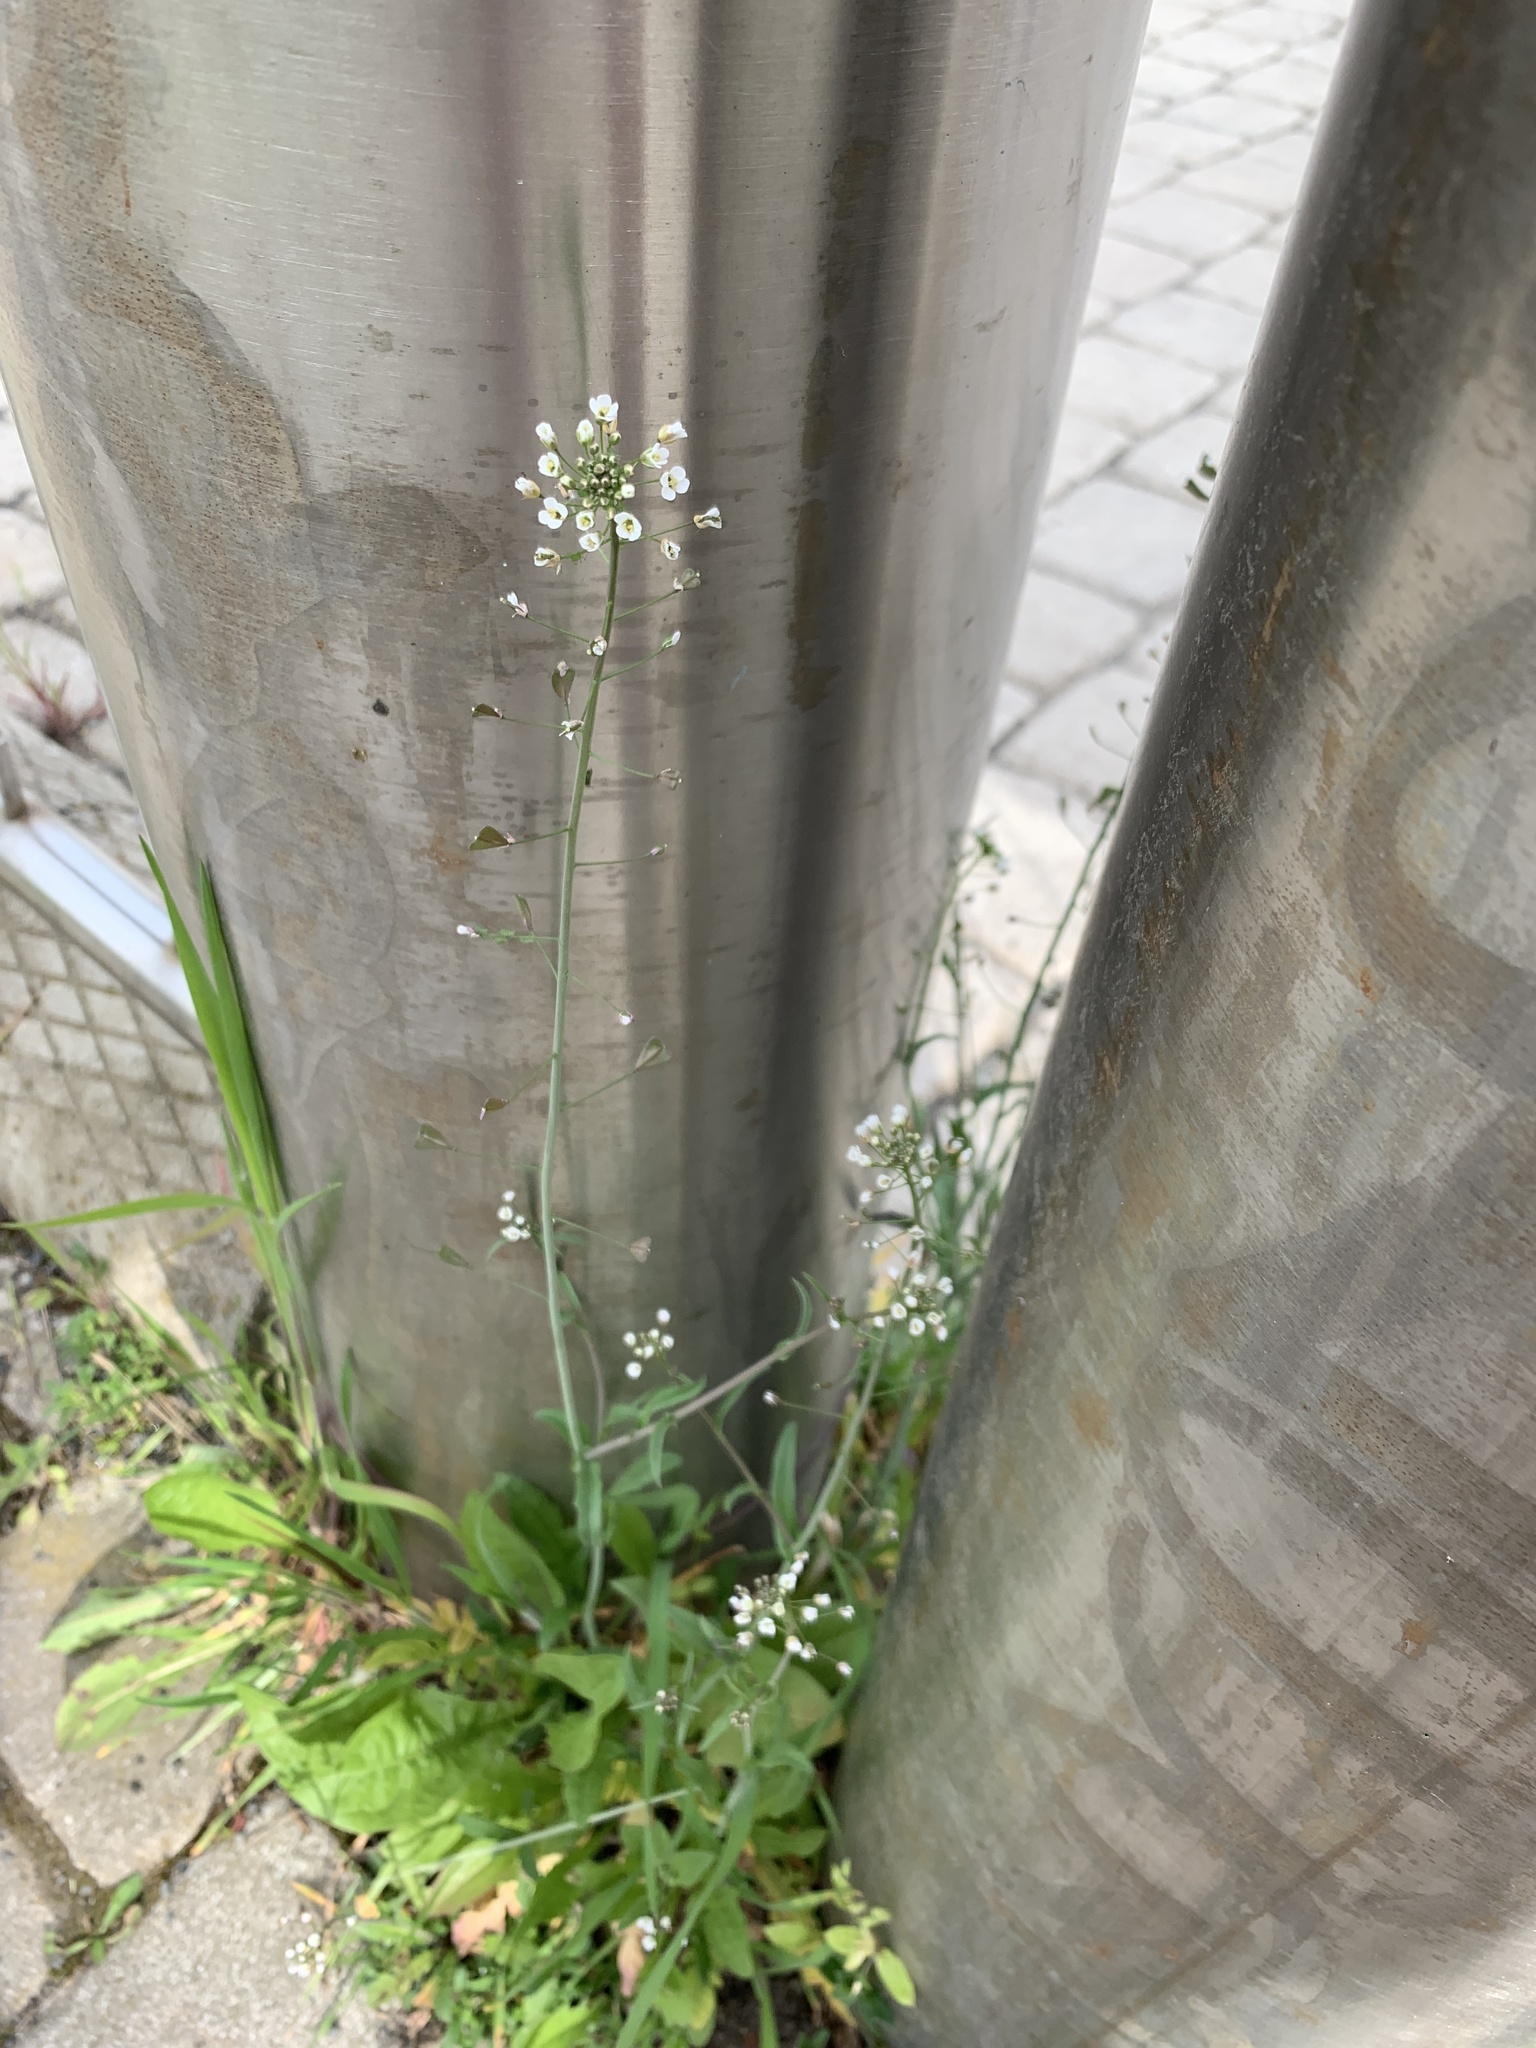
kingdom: Plantae
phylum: Tracheophyta
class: Magnoliopsida
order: Brassicales
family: Brassicaceae
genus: Capsella
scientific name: Capsella bursa-pastoris
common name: Shepherd's purse
